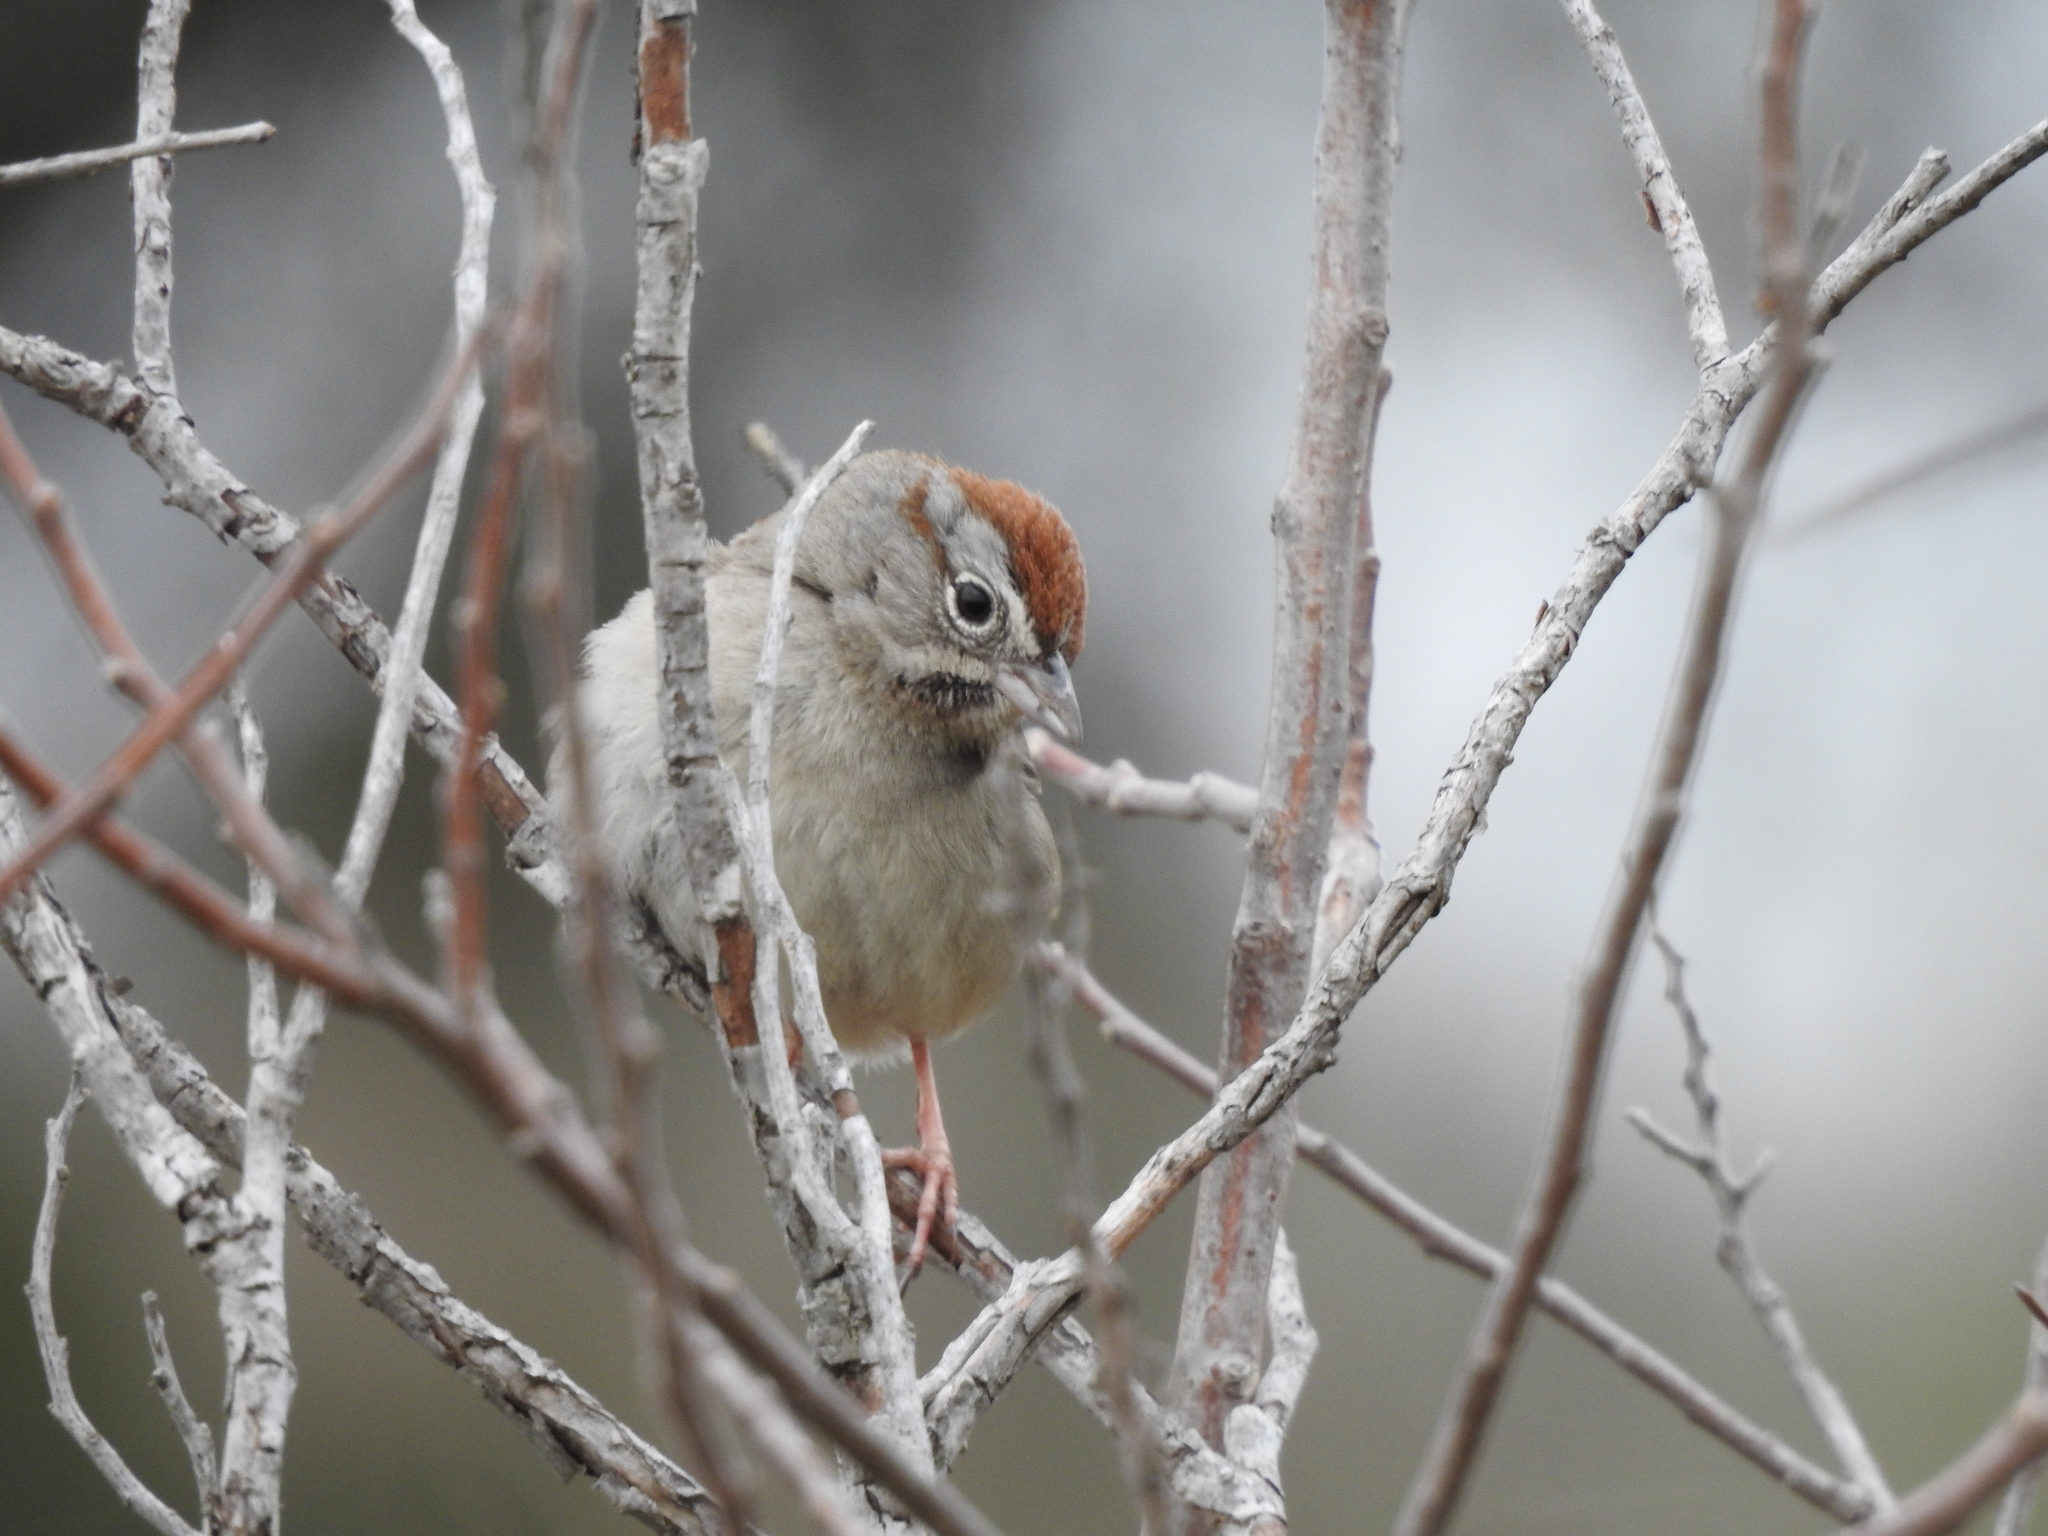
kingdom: Animalia
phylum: Chordata
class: Aves
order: Passeriformes
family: Passerellidae
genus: Aimophila
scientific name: Aimophila ruficeps
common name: Rufous-crowned sparrow
